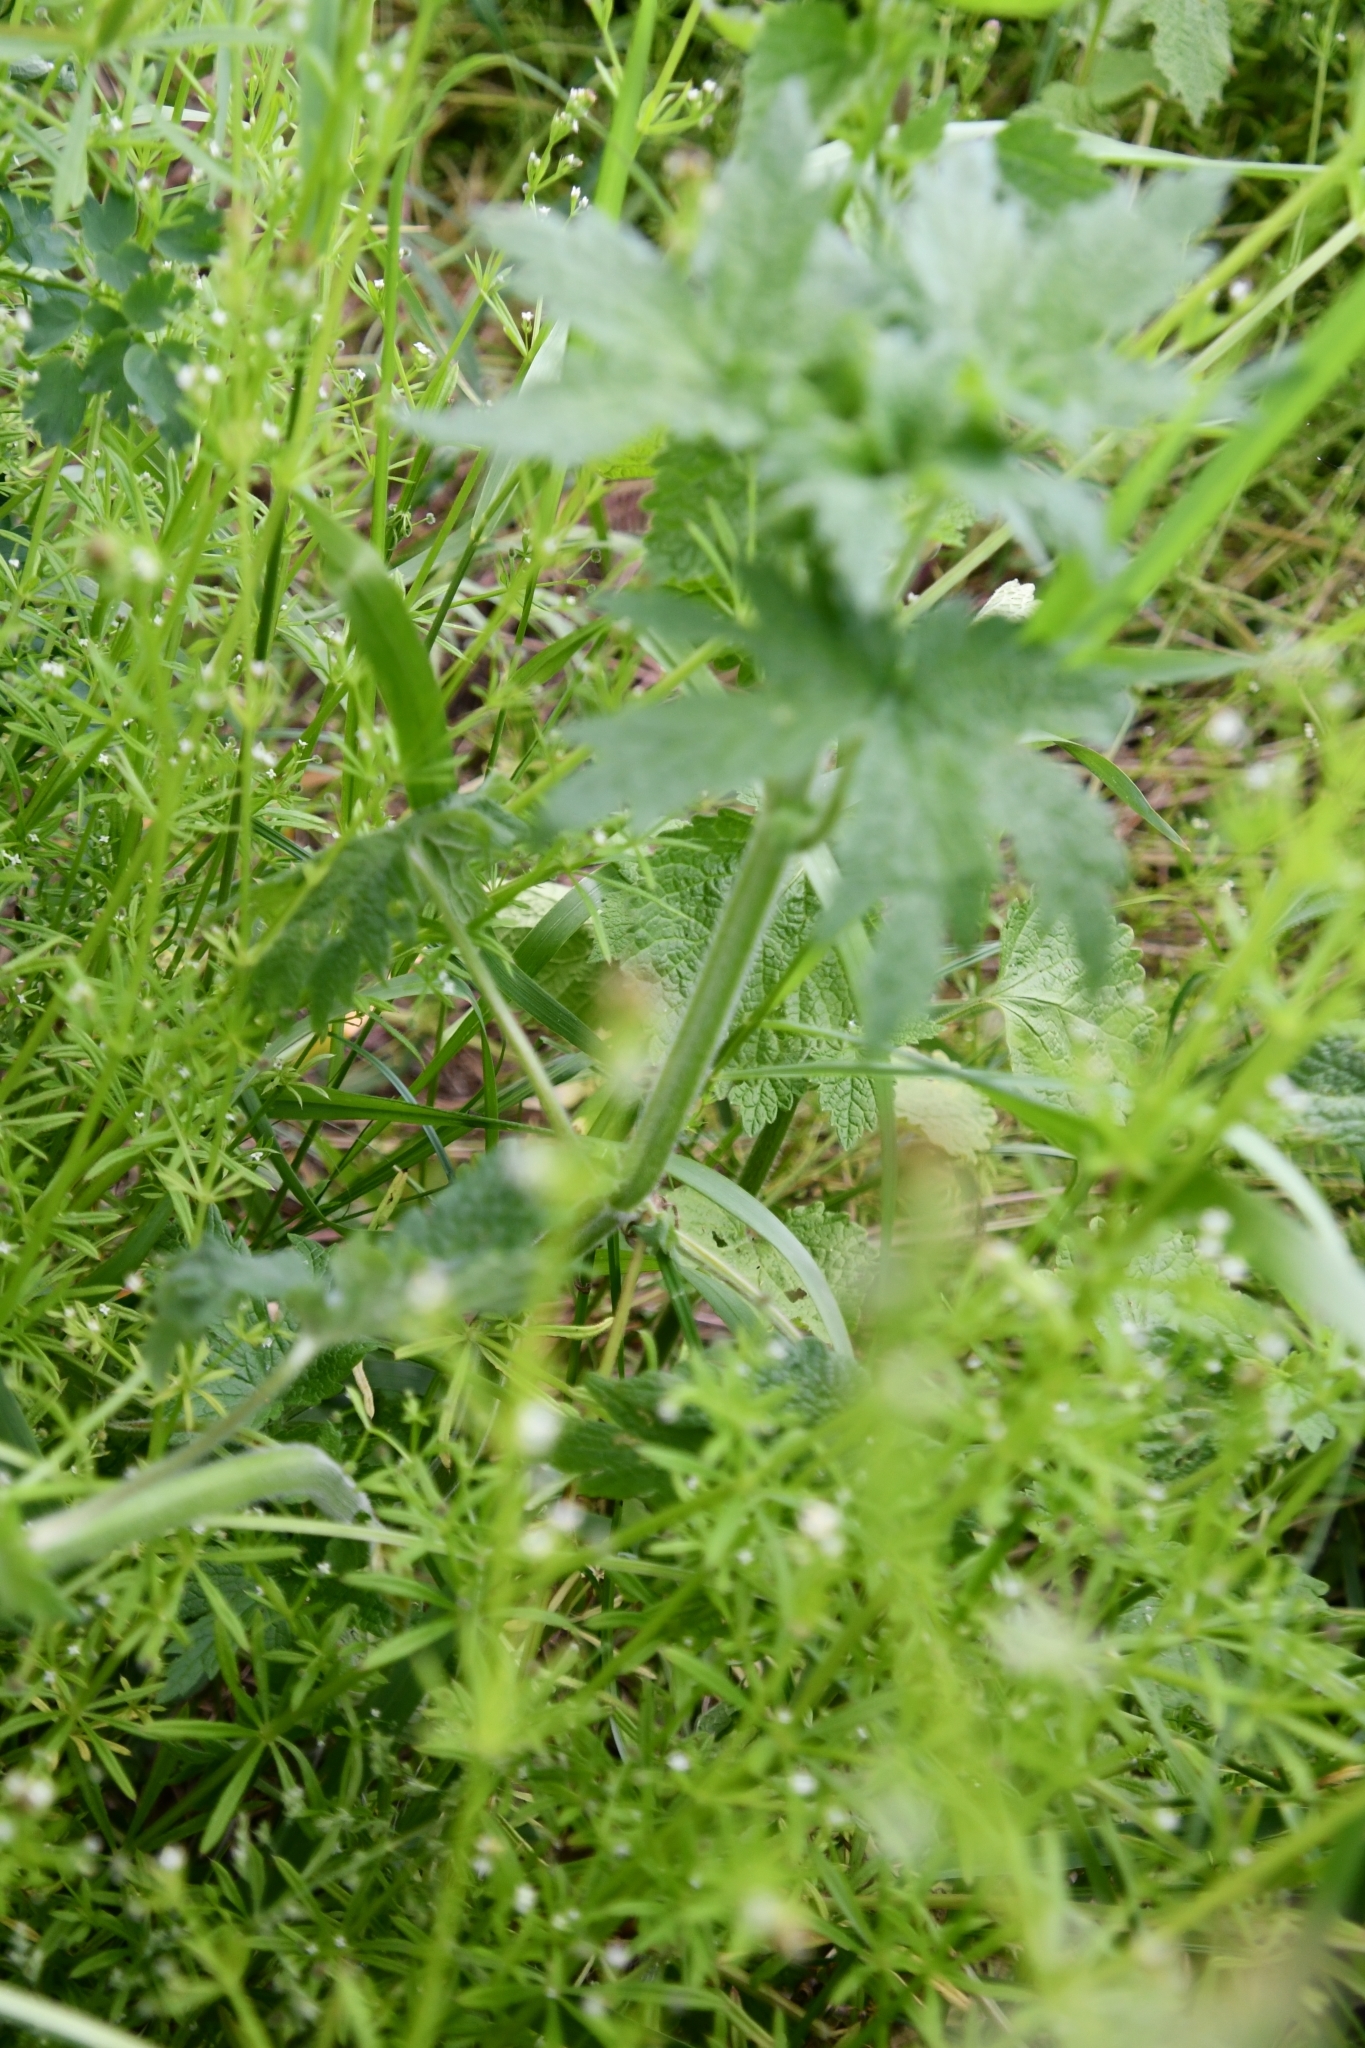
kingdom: Plantae
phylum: Tracheophyta
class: Magnoliopsida
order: Lamiales
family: Lamiaceae
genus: Leonurus
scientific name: Leonurus quinquelobatus
